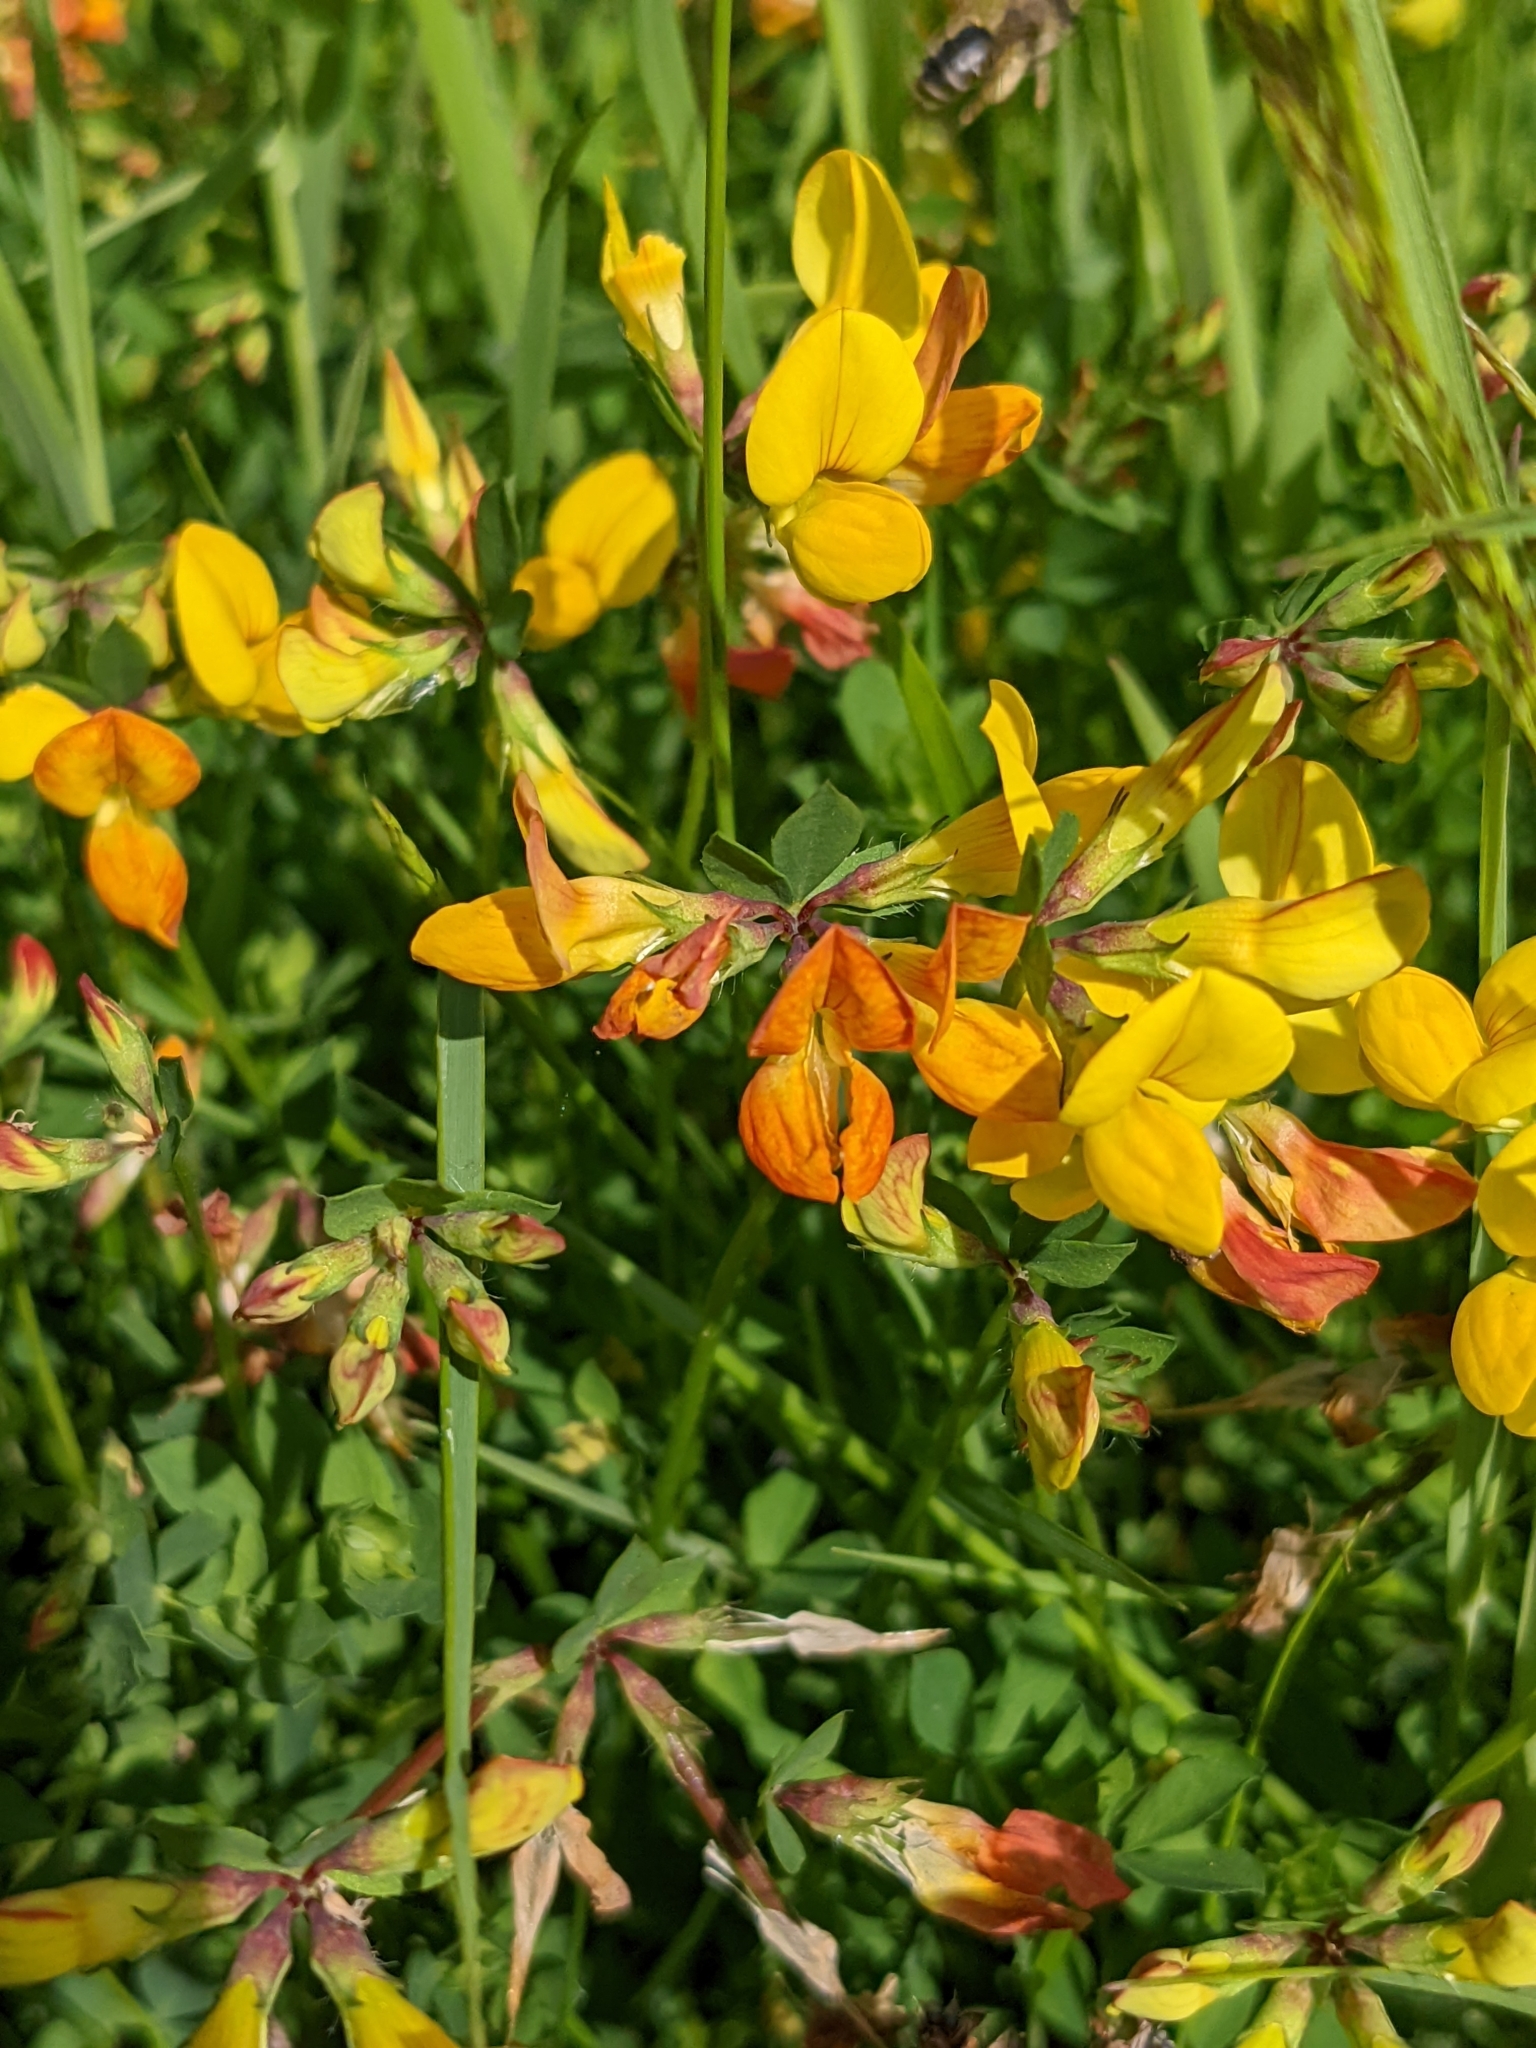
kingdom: Plantae
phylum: Tracheophyta
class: Magnoliopsida
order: Fabales
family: Fabaceae
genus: Lotus
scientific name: Lotus corniculatus
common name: Common bird's-foot-trefoil
